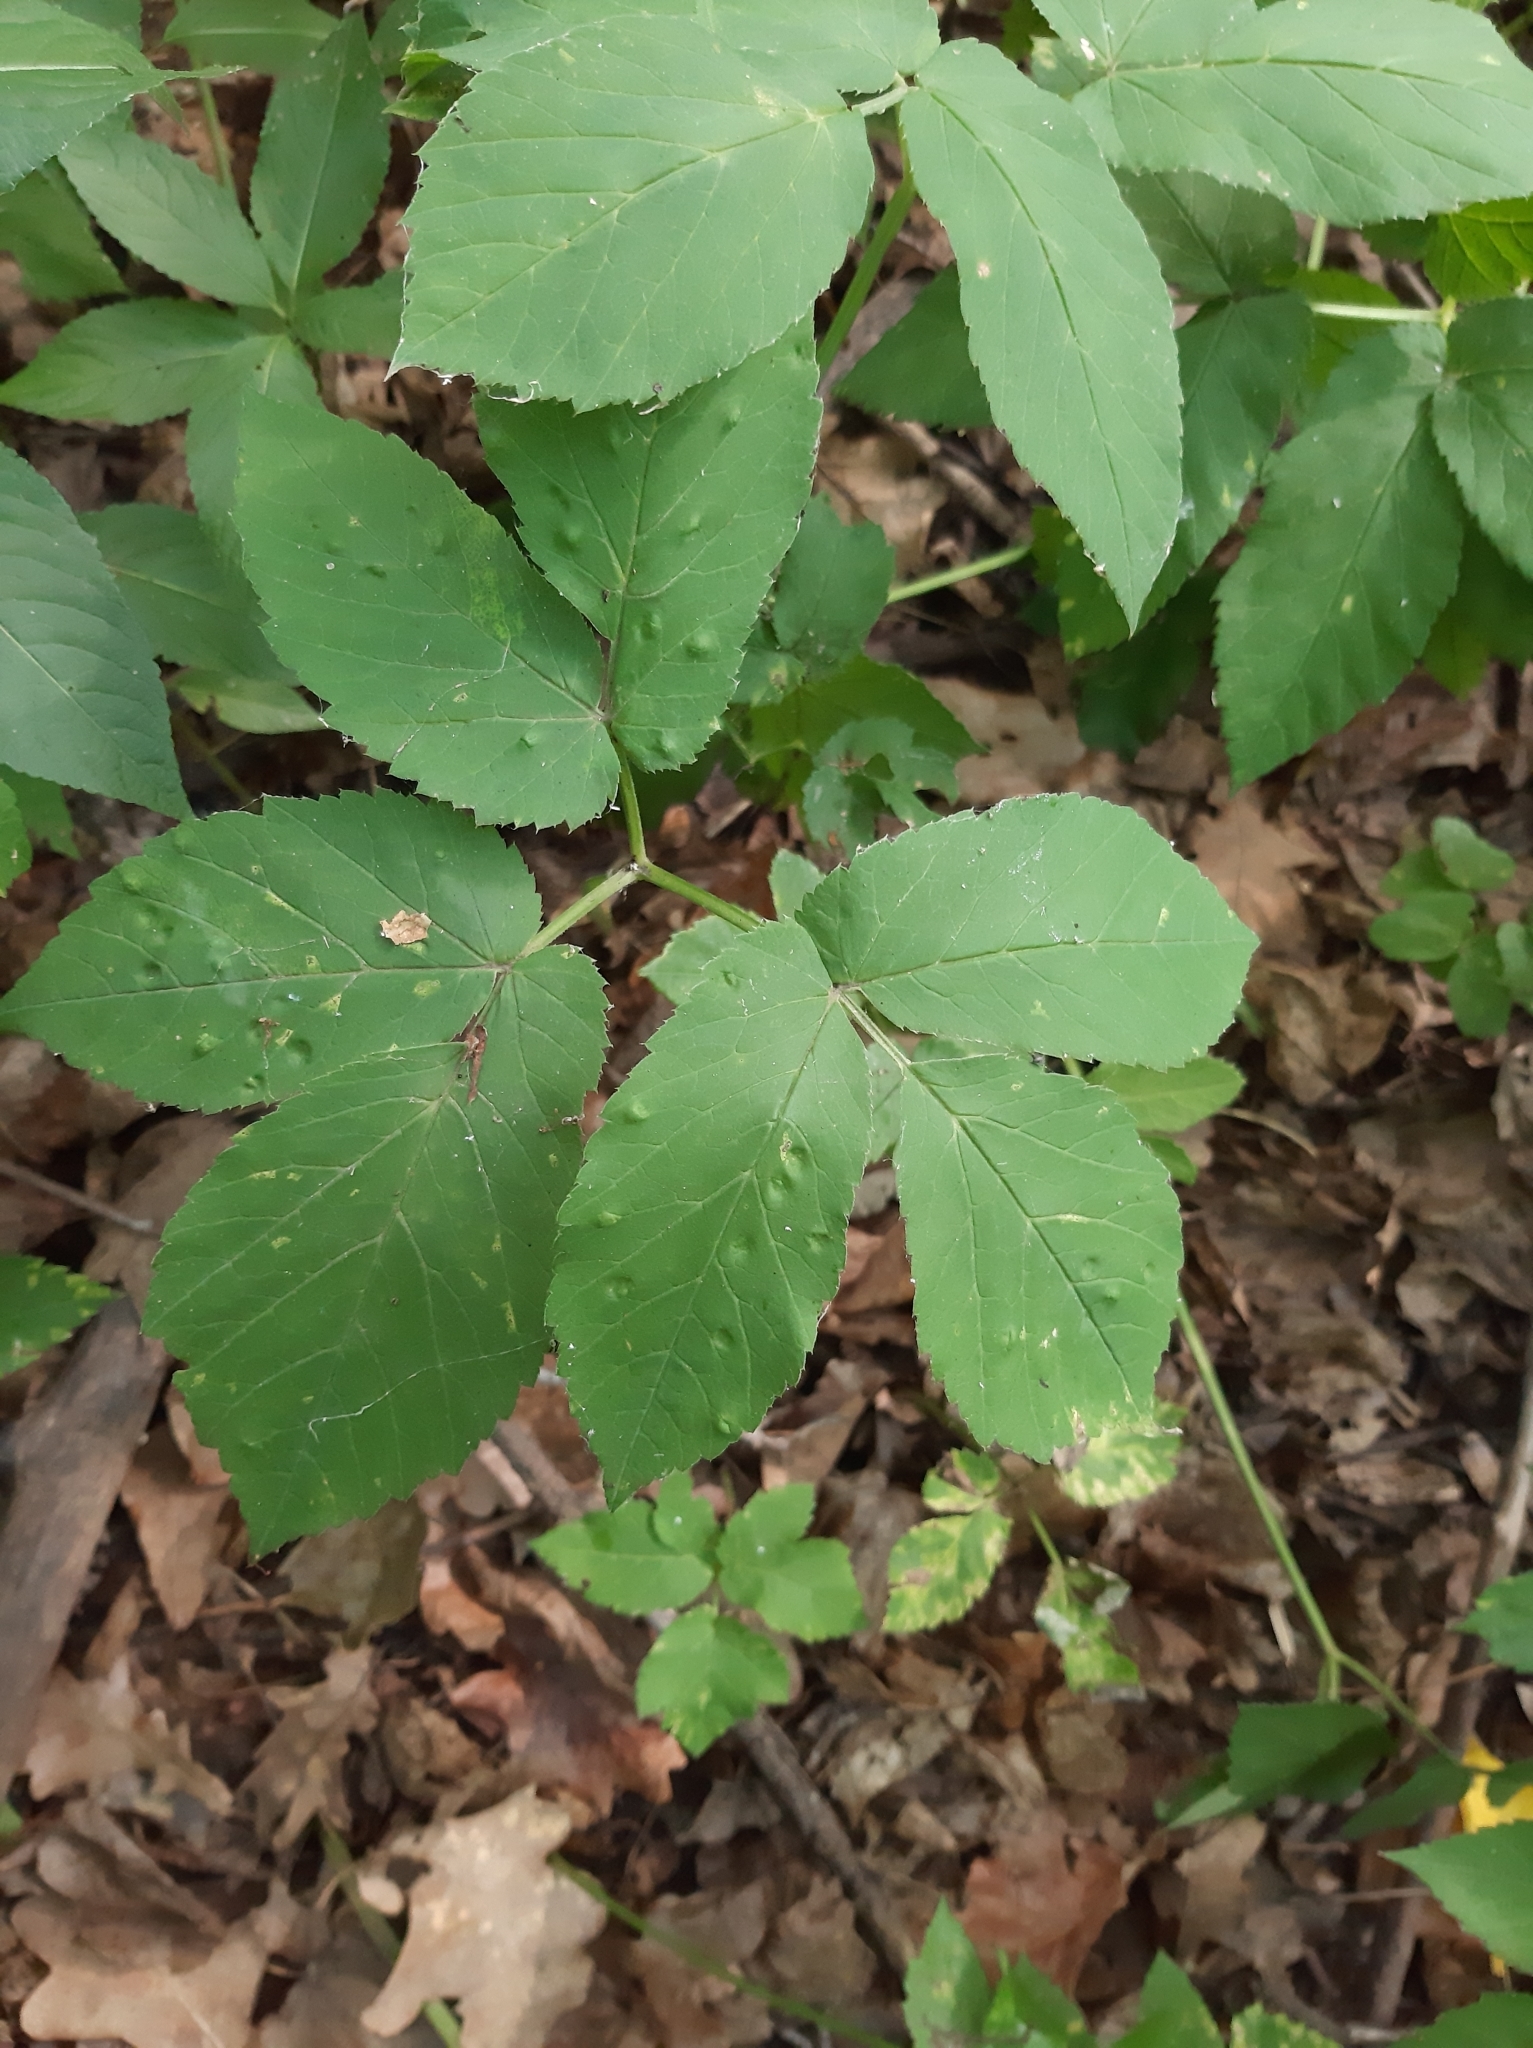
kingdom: Plantae
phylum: Tracheophyta
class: Magnoliopsida
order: Apiales
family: Apiaceae
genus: Aegopodium
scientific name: Aegopodium podagraria
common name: Ground-elder
